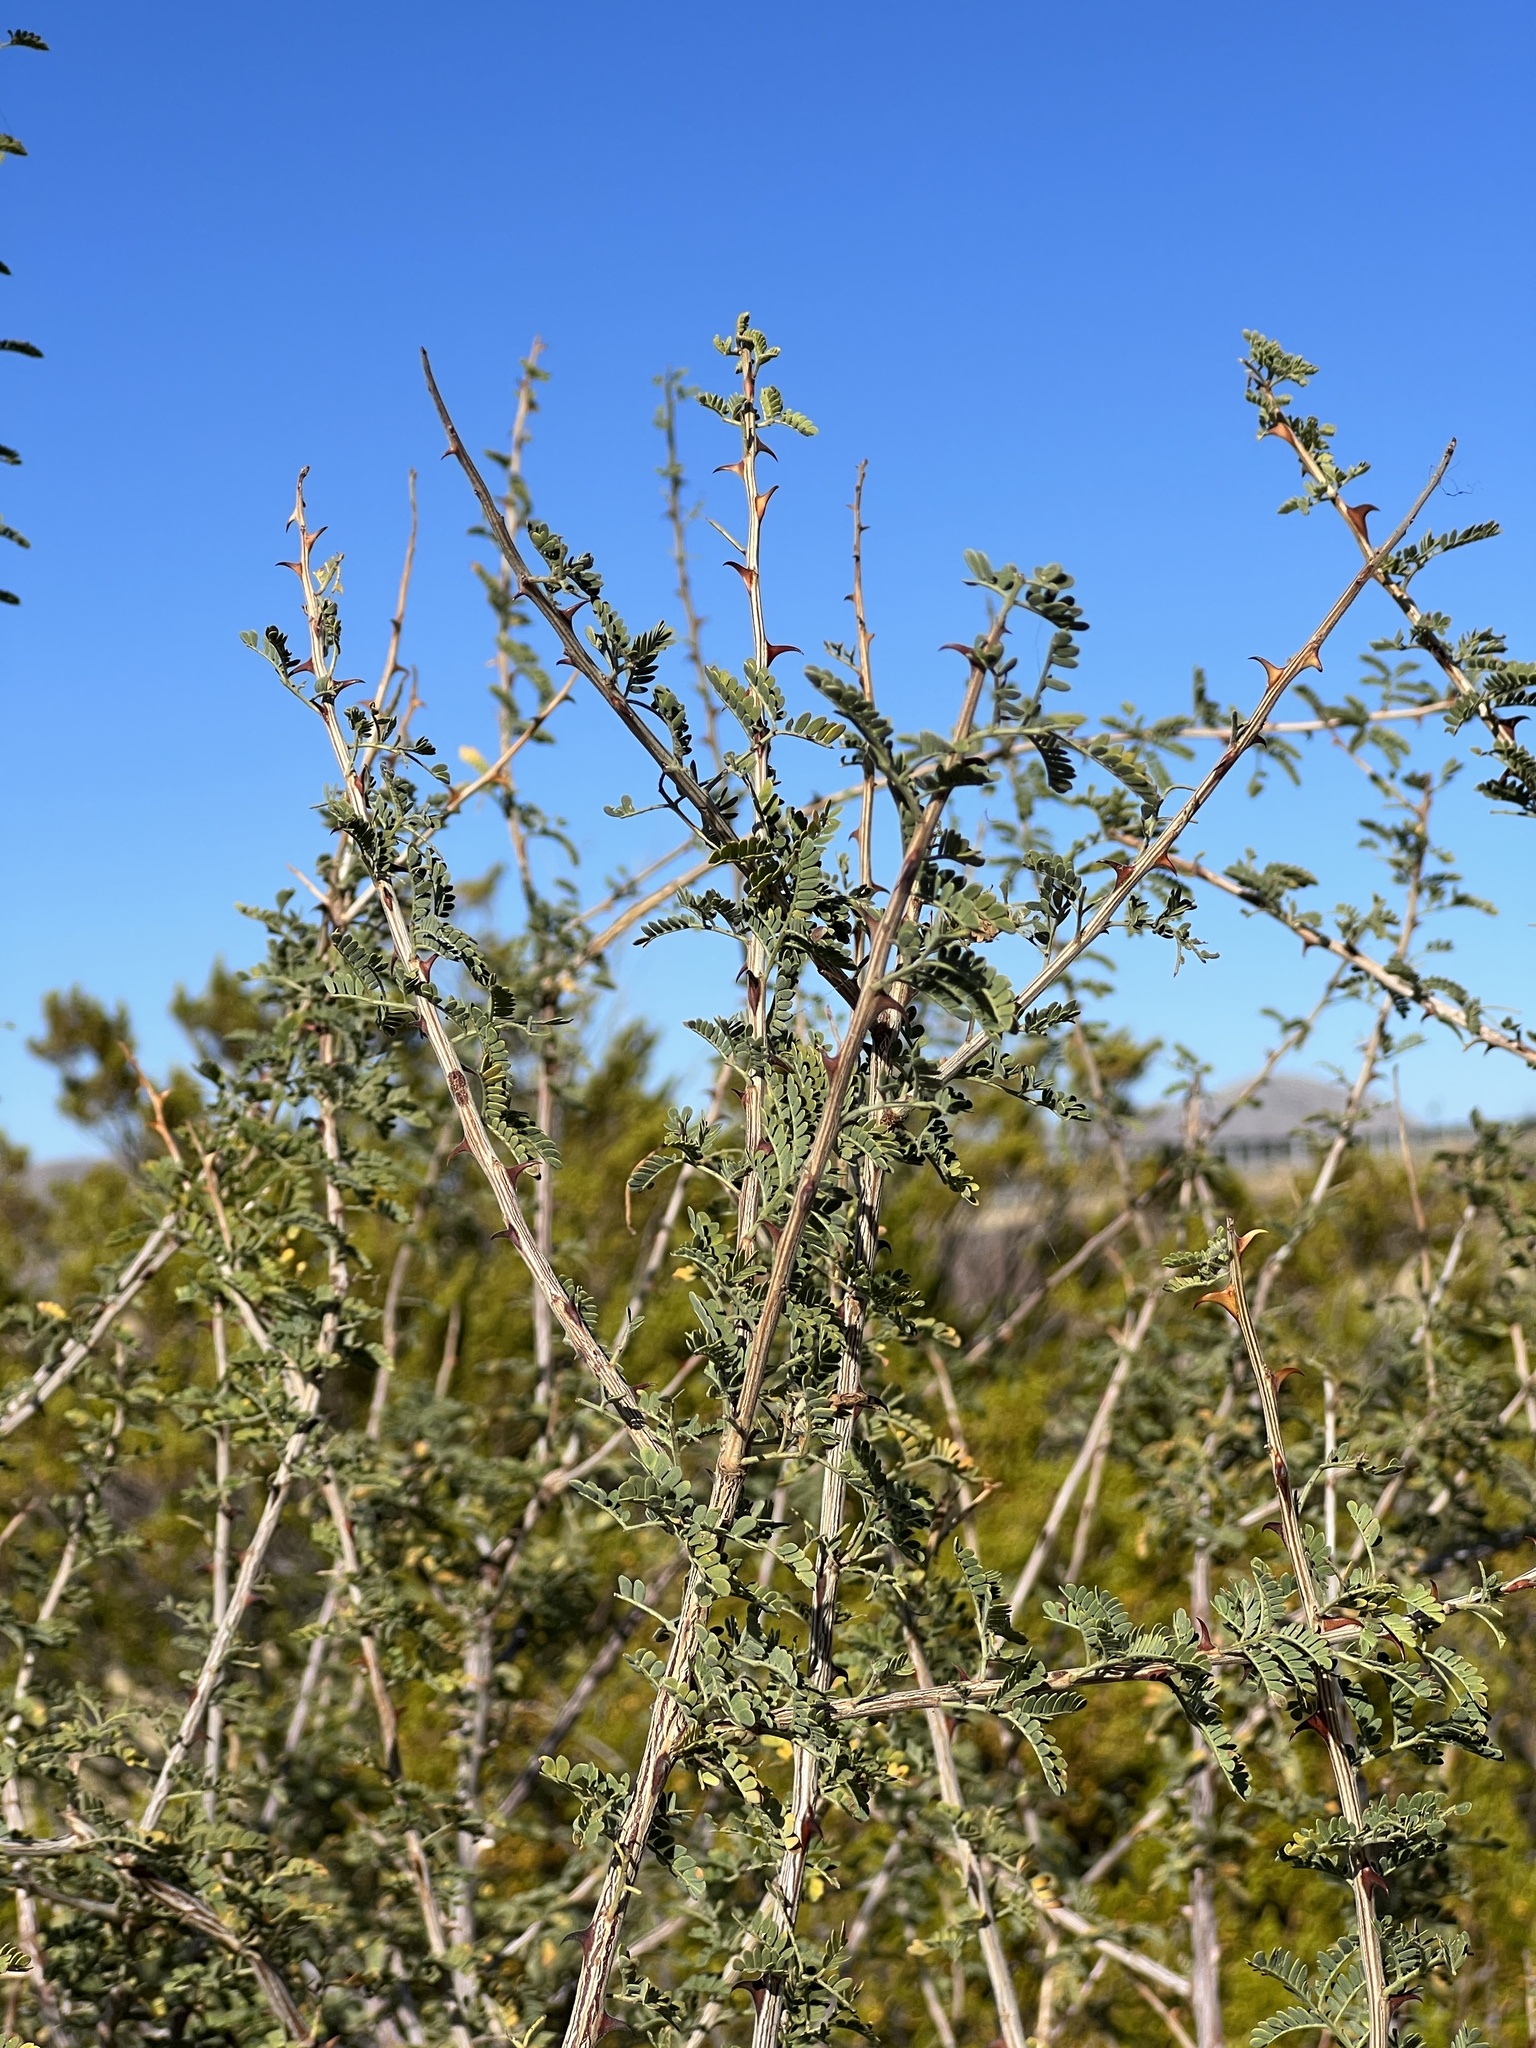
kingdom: Plantae
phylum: Tracheophyta
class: Magnoliopsida
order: Fabales
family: Fabaceae
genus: Senegalia
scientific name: Senegalia greggii
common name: Texas-mimosa
